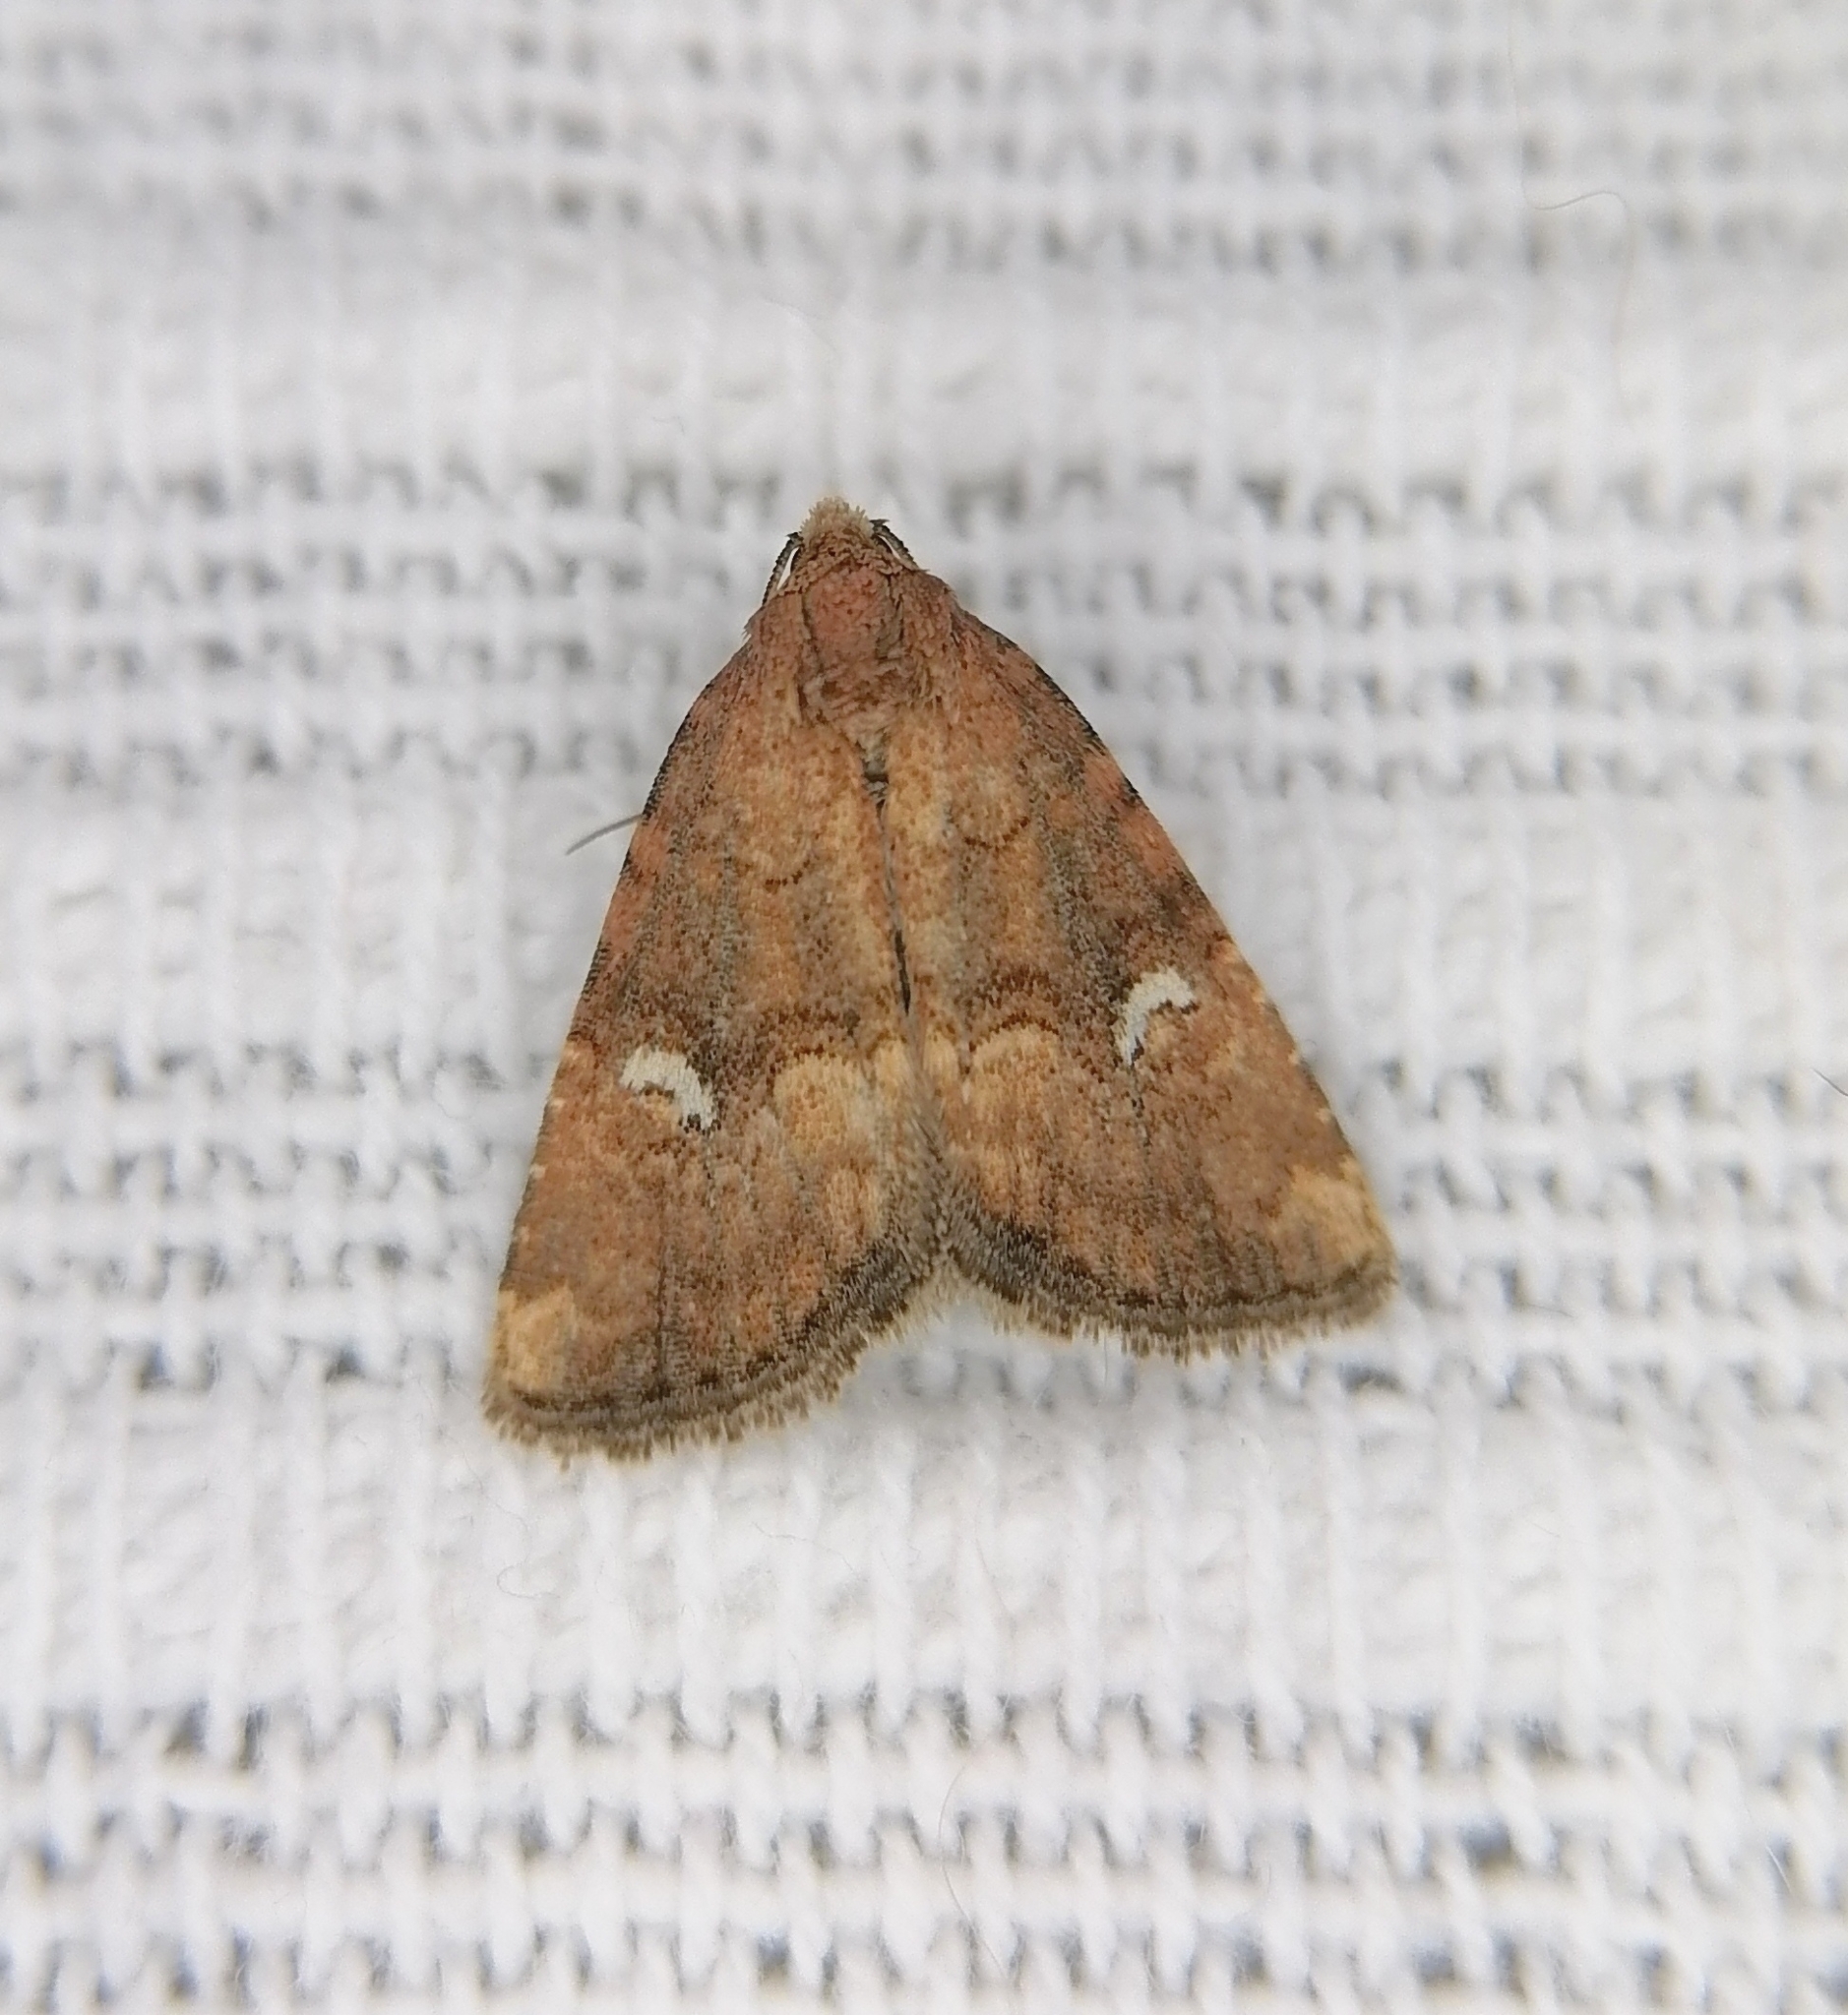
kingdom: Animalia
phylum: Arthropoda
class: Insecta
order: Lepidoptera
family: Noctuidae
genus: Oligia
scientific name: Oligia leuconephra
